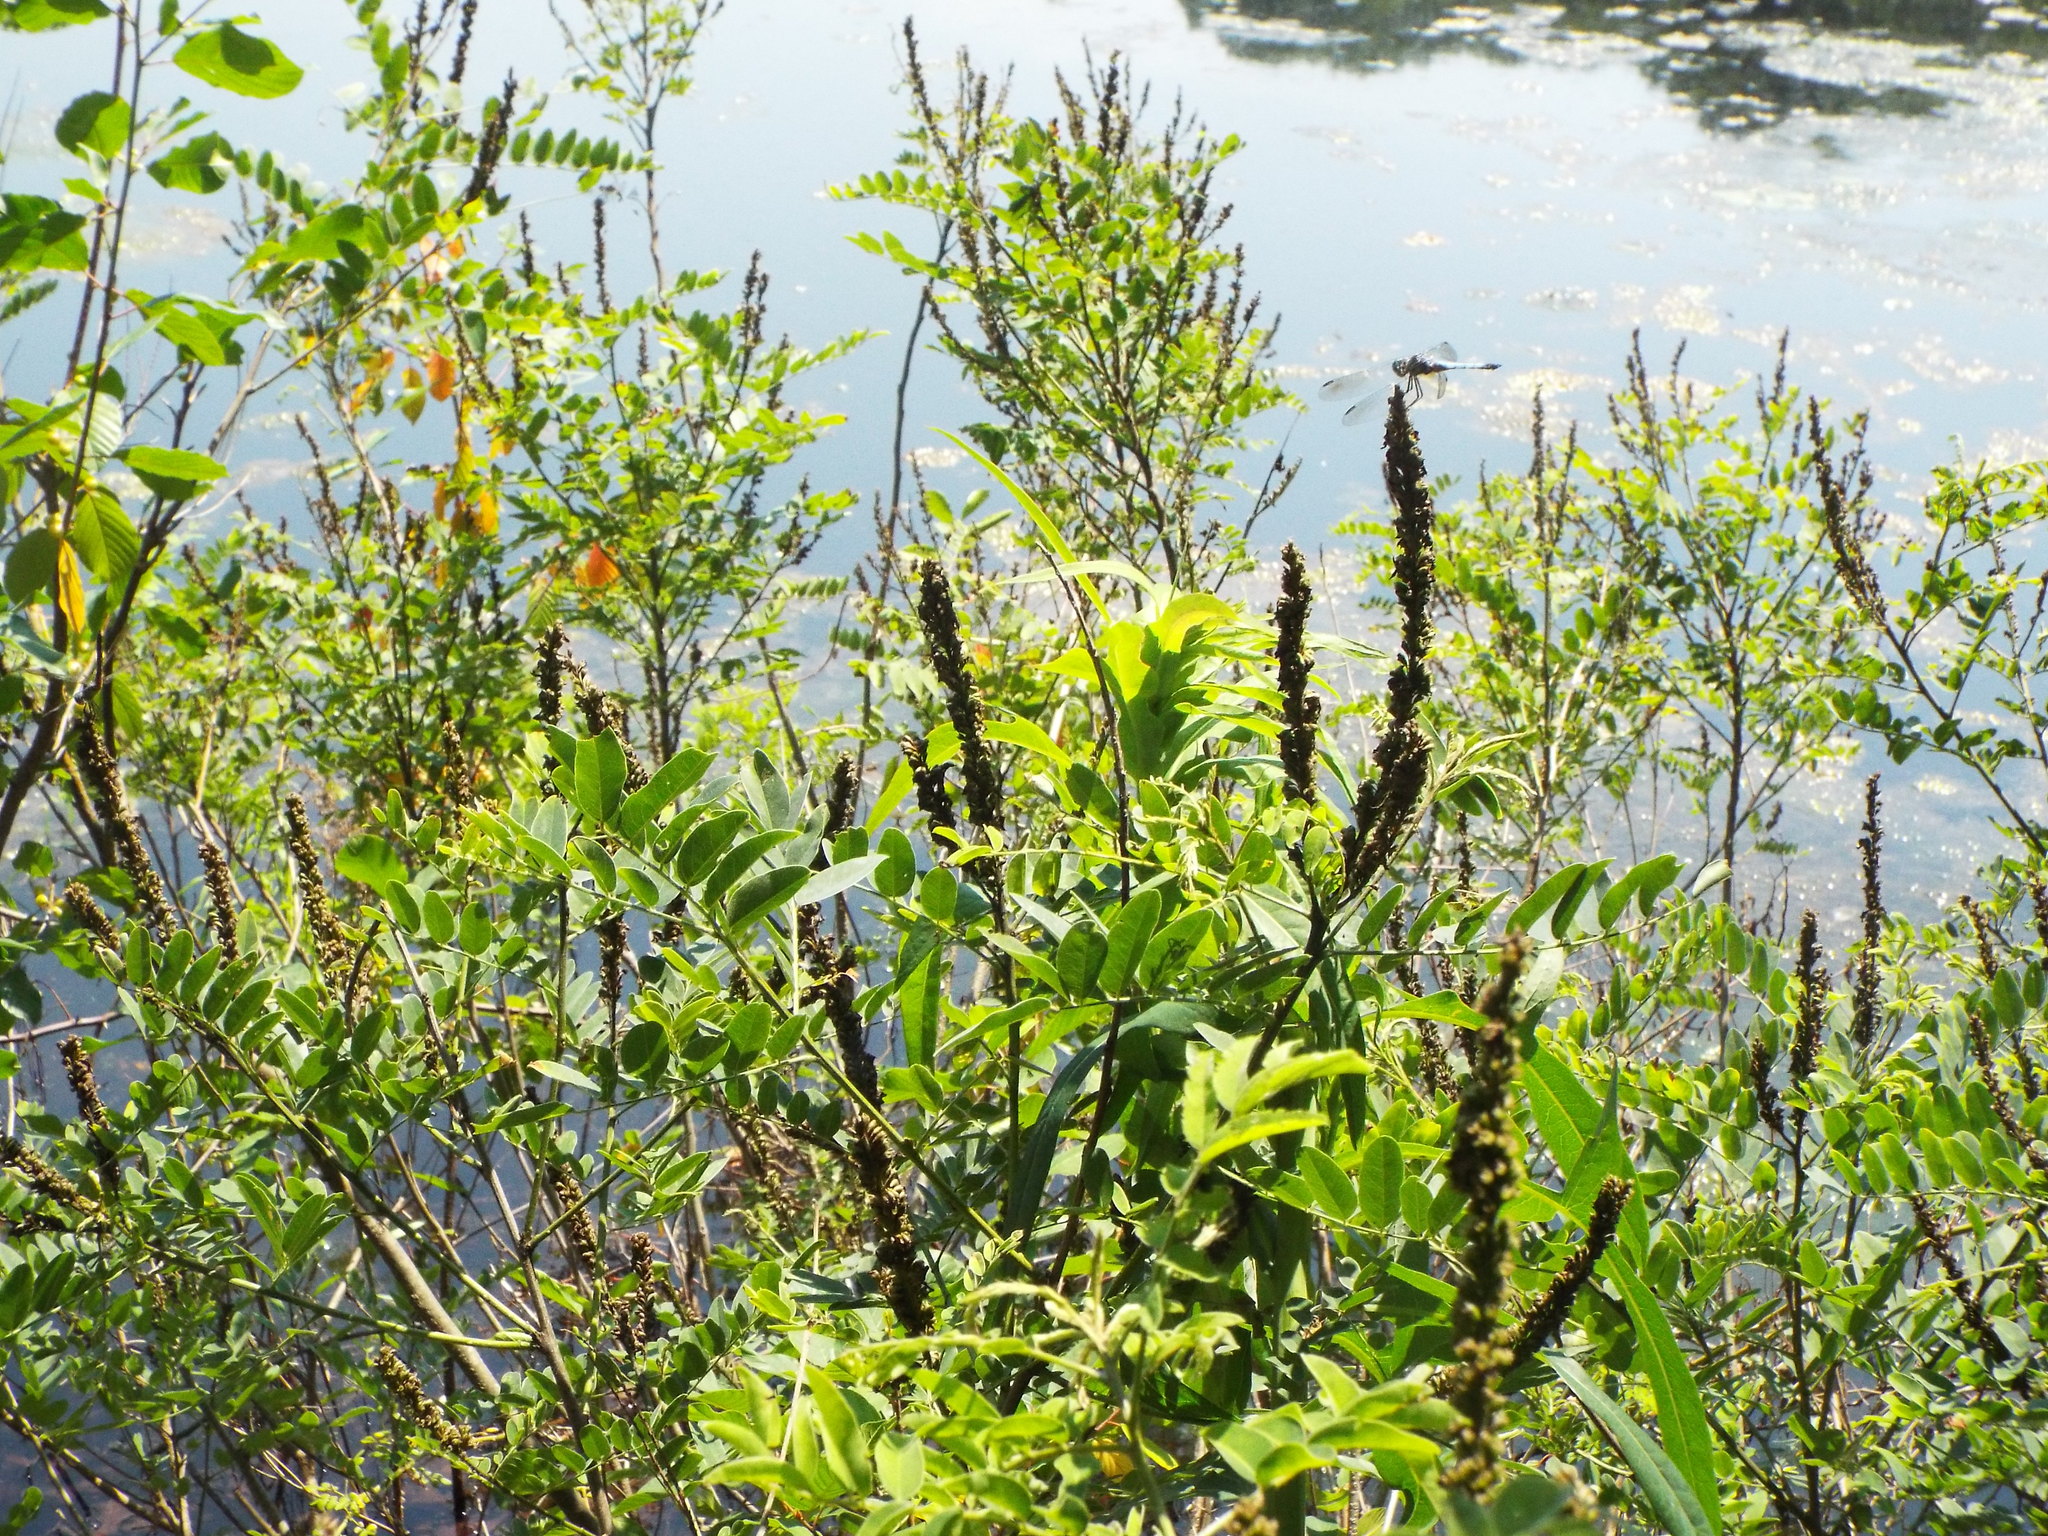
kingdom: Plantae
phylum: Tracheophyta
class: Magnoliopsida
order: Fabales
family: Fabaceae
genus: Amorpha
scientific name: Amorpha fruticosa
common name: False indigo
